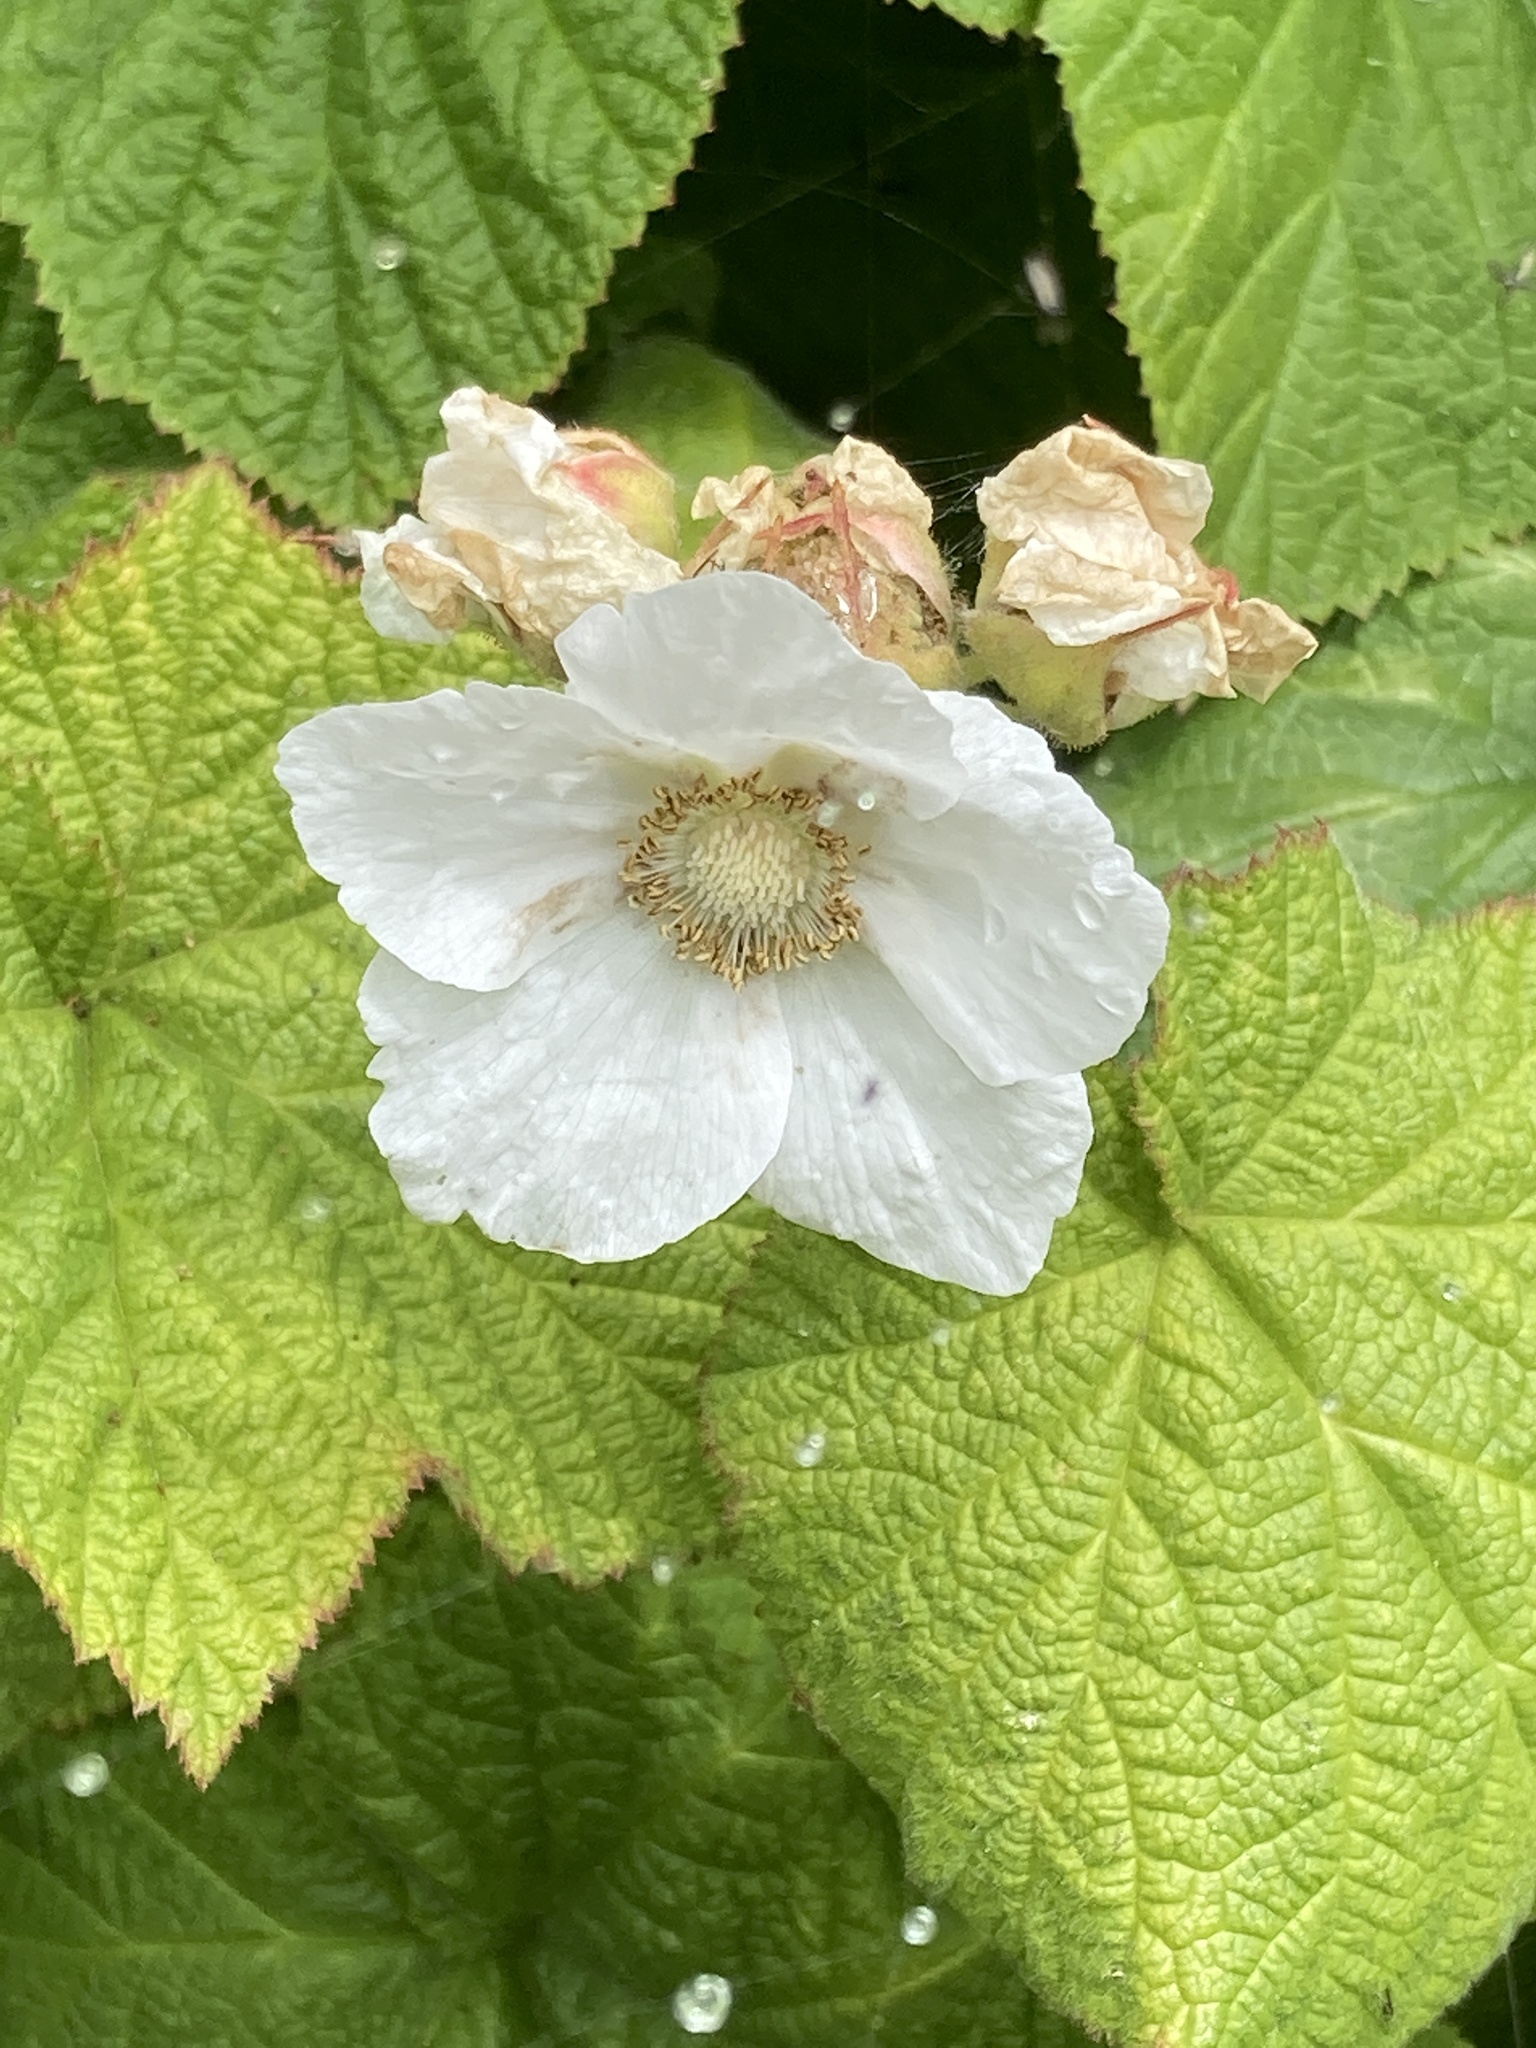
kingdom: Plantae
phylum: Tracheophyta
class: Magnoliopsida
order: Rosales
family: Rosaceae
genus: Rubus
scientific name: Rubus parviflorus
